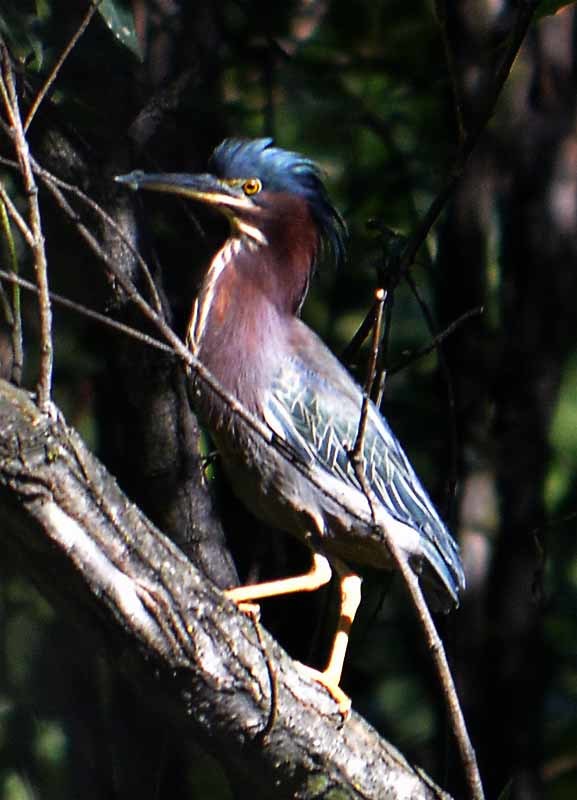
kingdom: Animalia
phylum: Chordata
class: Aves
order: Pelecaniformes
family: Ardeidae
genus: Butorides
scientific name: Butorides virescens
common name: Green heron
